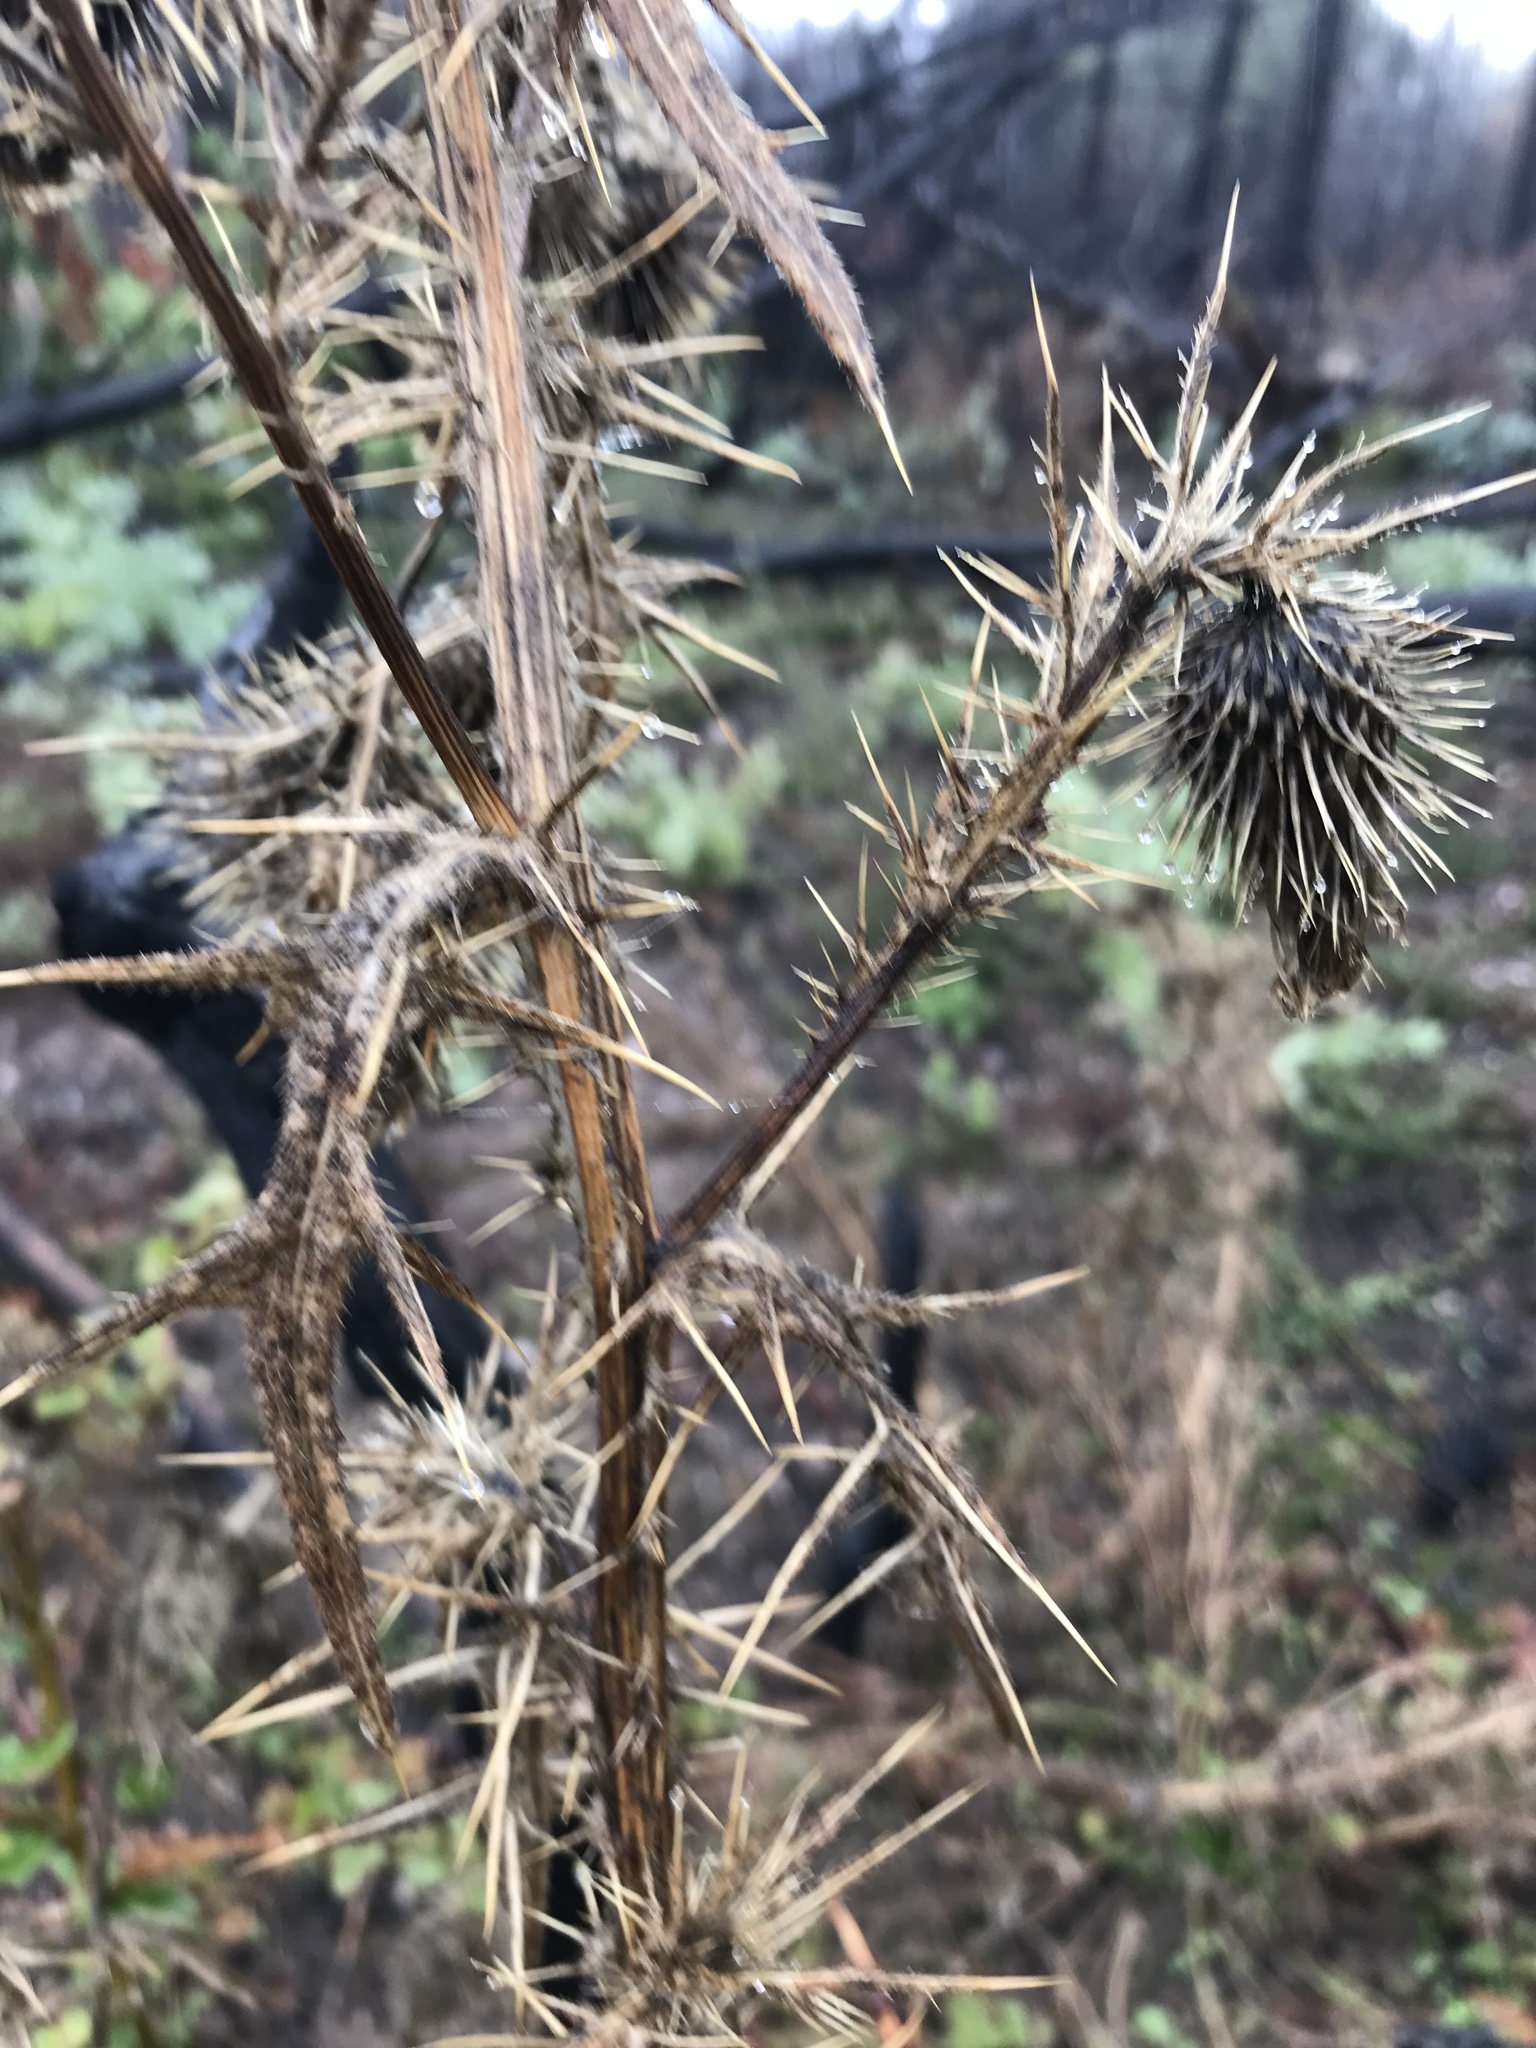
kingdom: Plantae
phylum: Tracheophyta
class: Magnoliopsida
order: Asterales
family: Asteraceae
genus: Cirsium
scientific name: Cirsium vulgare
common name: Bull thistle
